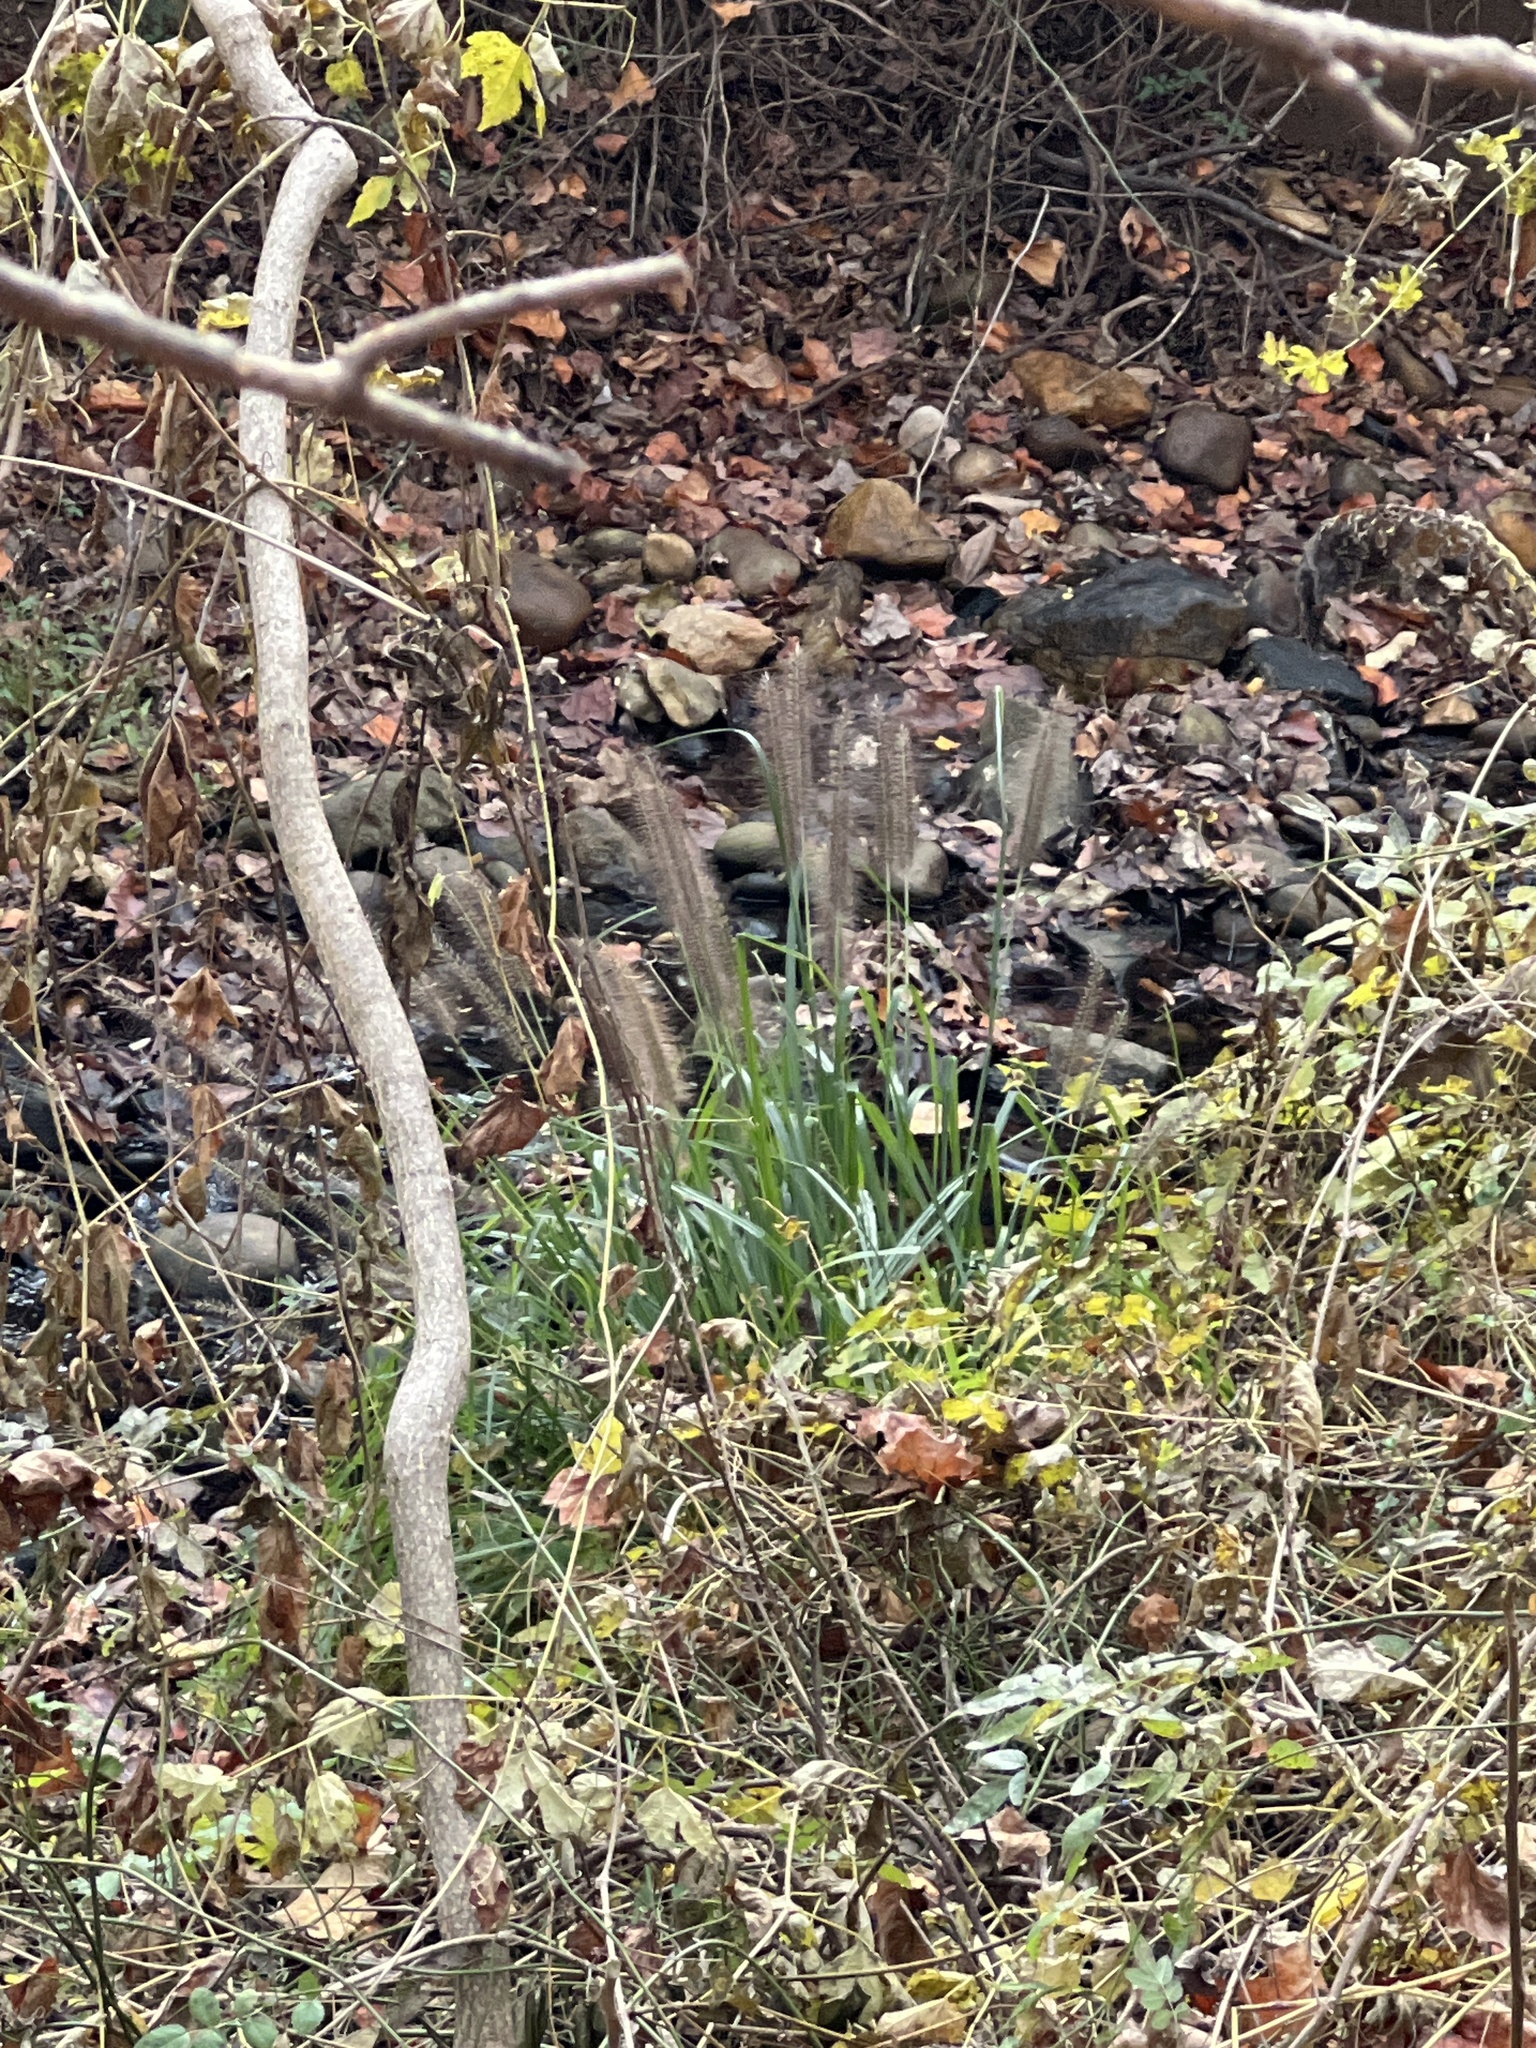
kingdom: Plantae
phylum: Tracheophyta
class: Liliopsida
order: Poales
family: Poaceae
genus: Cenchrus
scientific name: Cenchrus alopecuroides
